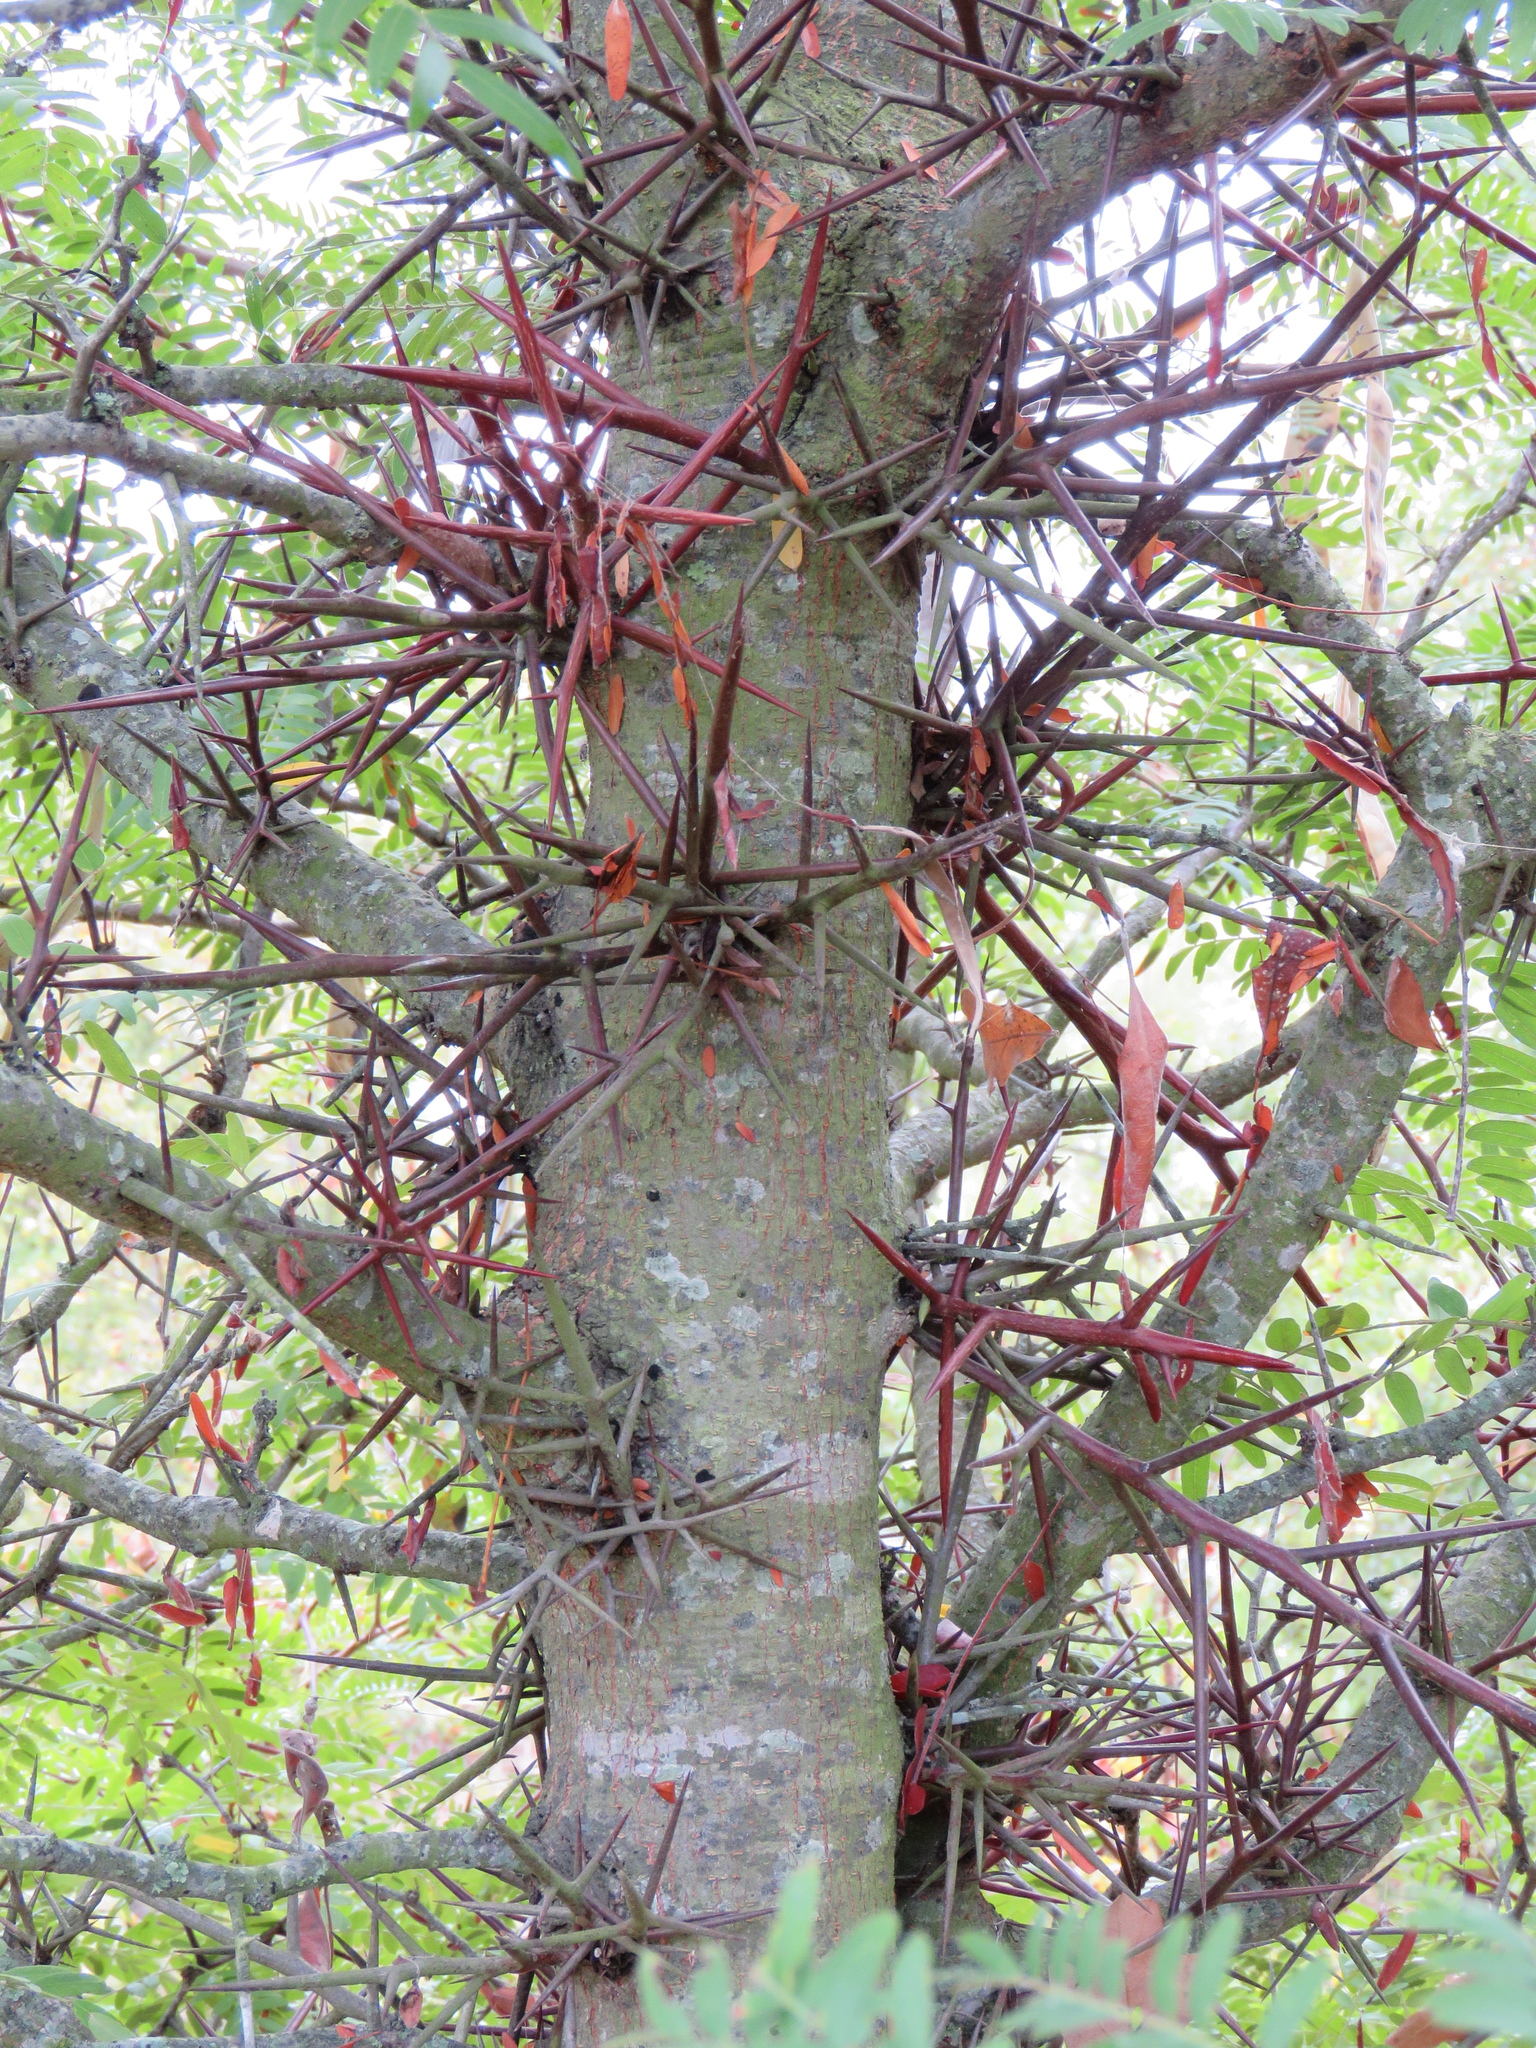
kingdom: Plantae
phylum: Tracheophyta
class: Magnoliopsida
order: Fabales
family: Fabaceae
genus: Gleditsia
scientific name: Gleditsia triacanthos
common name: Common honeylocust
